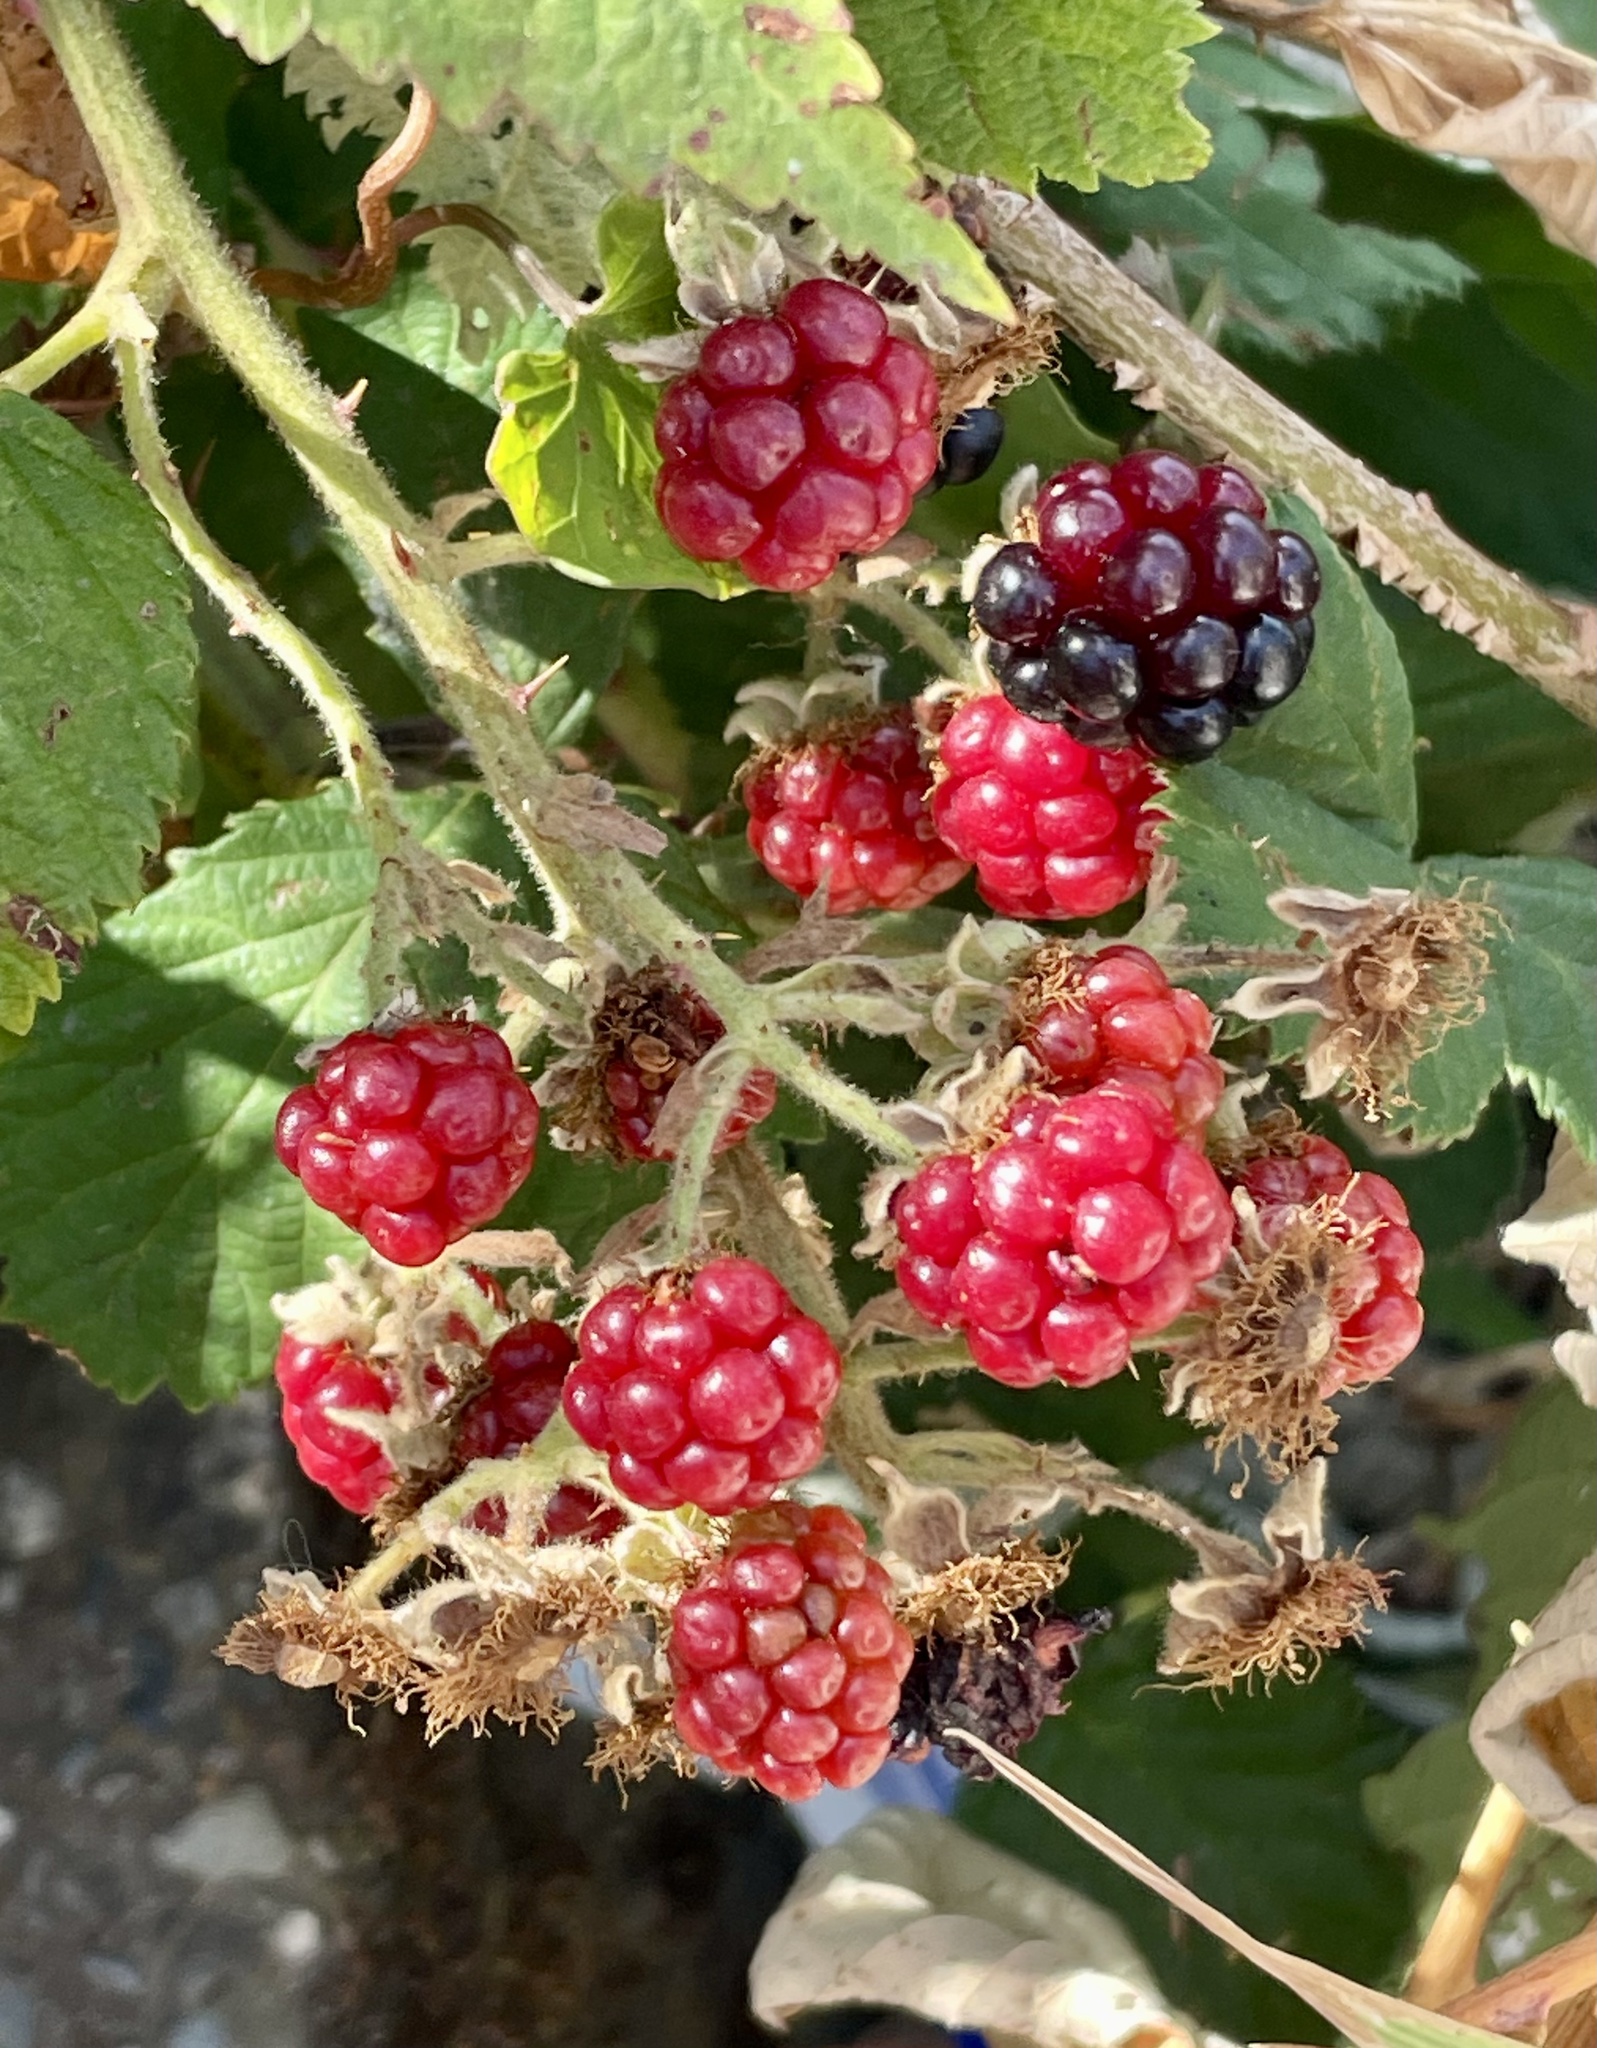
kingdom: Plantae
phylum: Tracheophyta
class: Magnoliopsida
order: Rosales
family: Rosaceae
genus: Rubus
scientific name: Rubus armeniacus
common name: Himalayan blackberry
